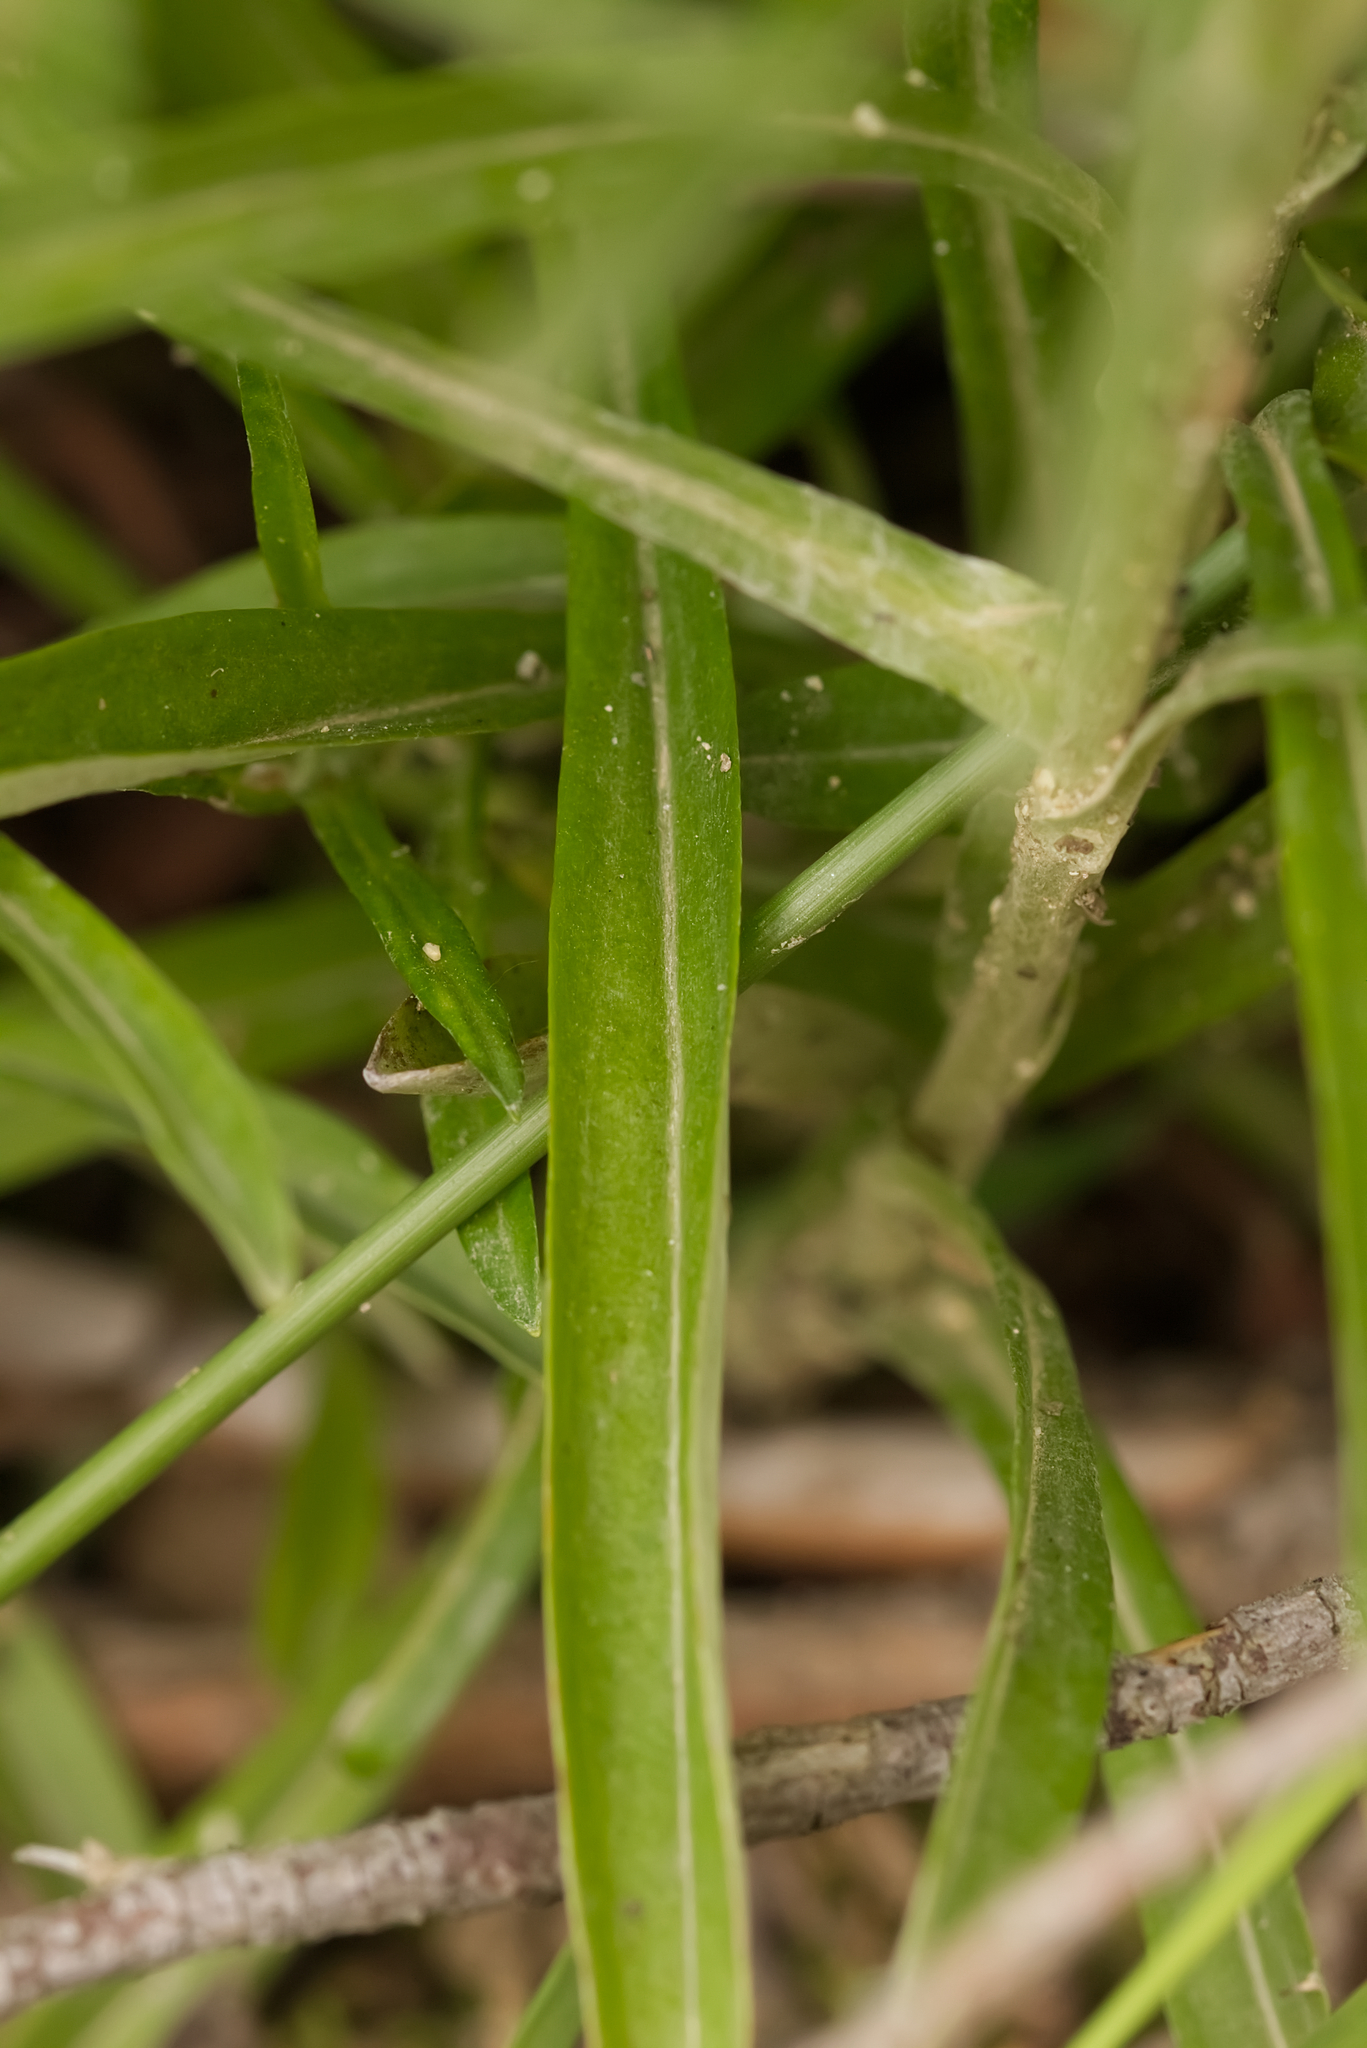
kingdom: Plantae
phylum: Tracheophyta
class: Magnoliopsida
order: Asterales
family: Asteraceae
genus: Omalotheca
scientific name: Omalotheca sylvatica
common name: Heath cudweed
